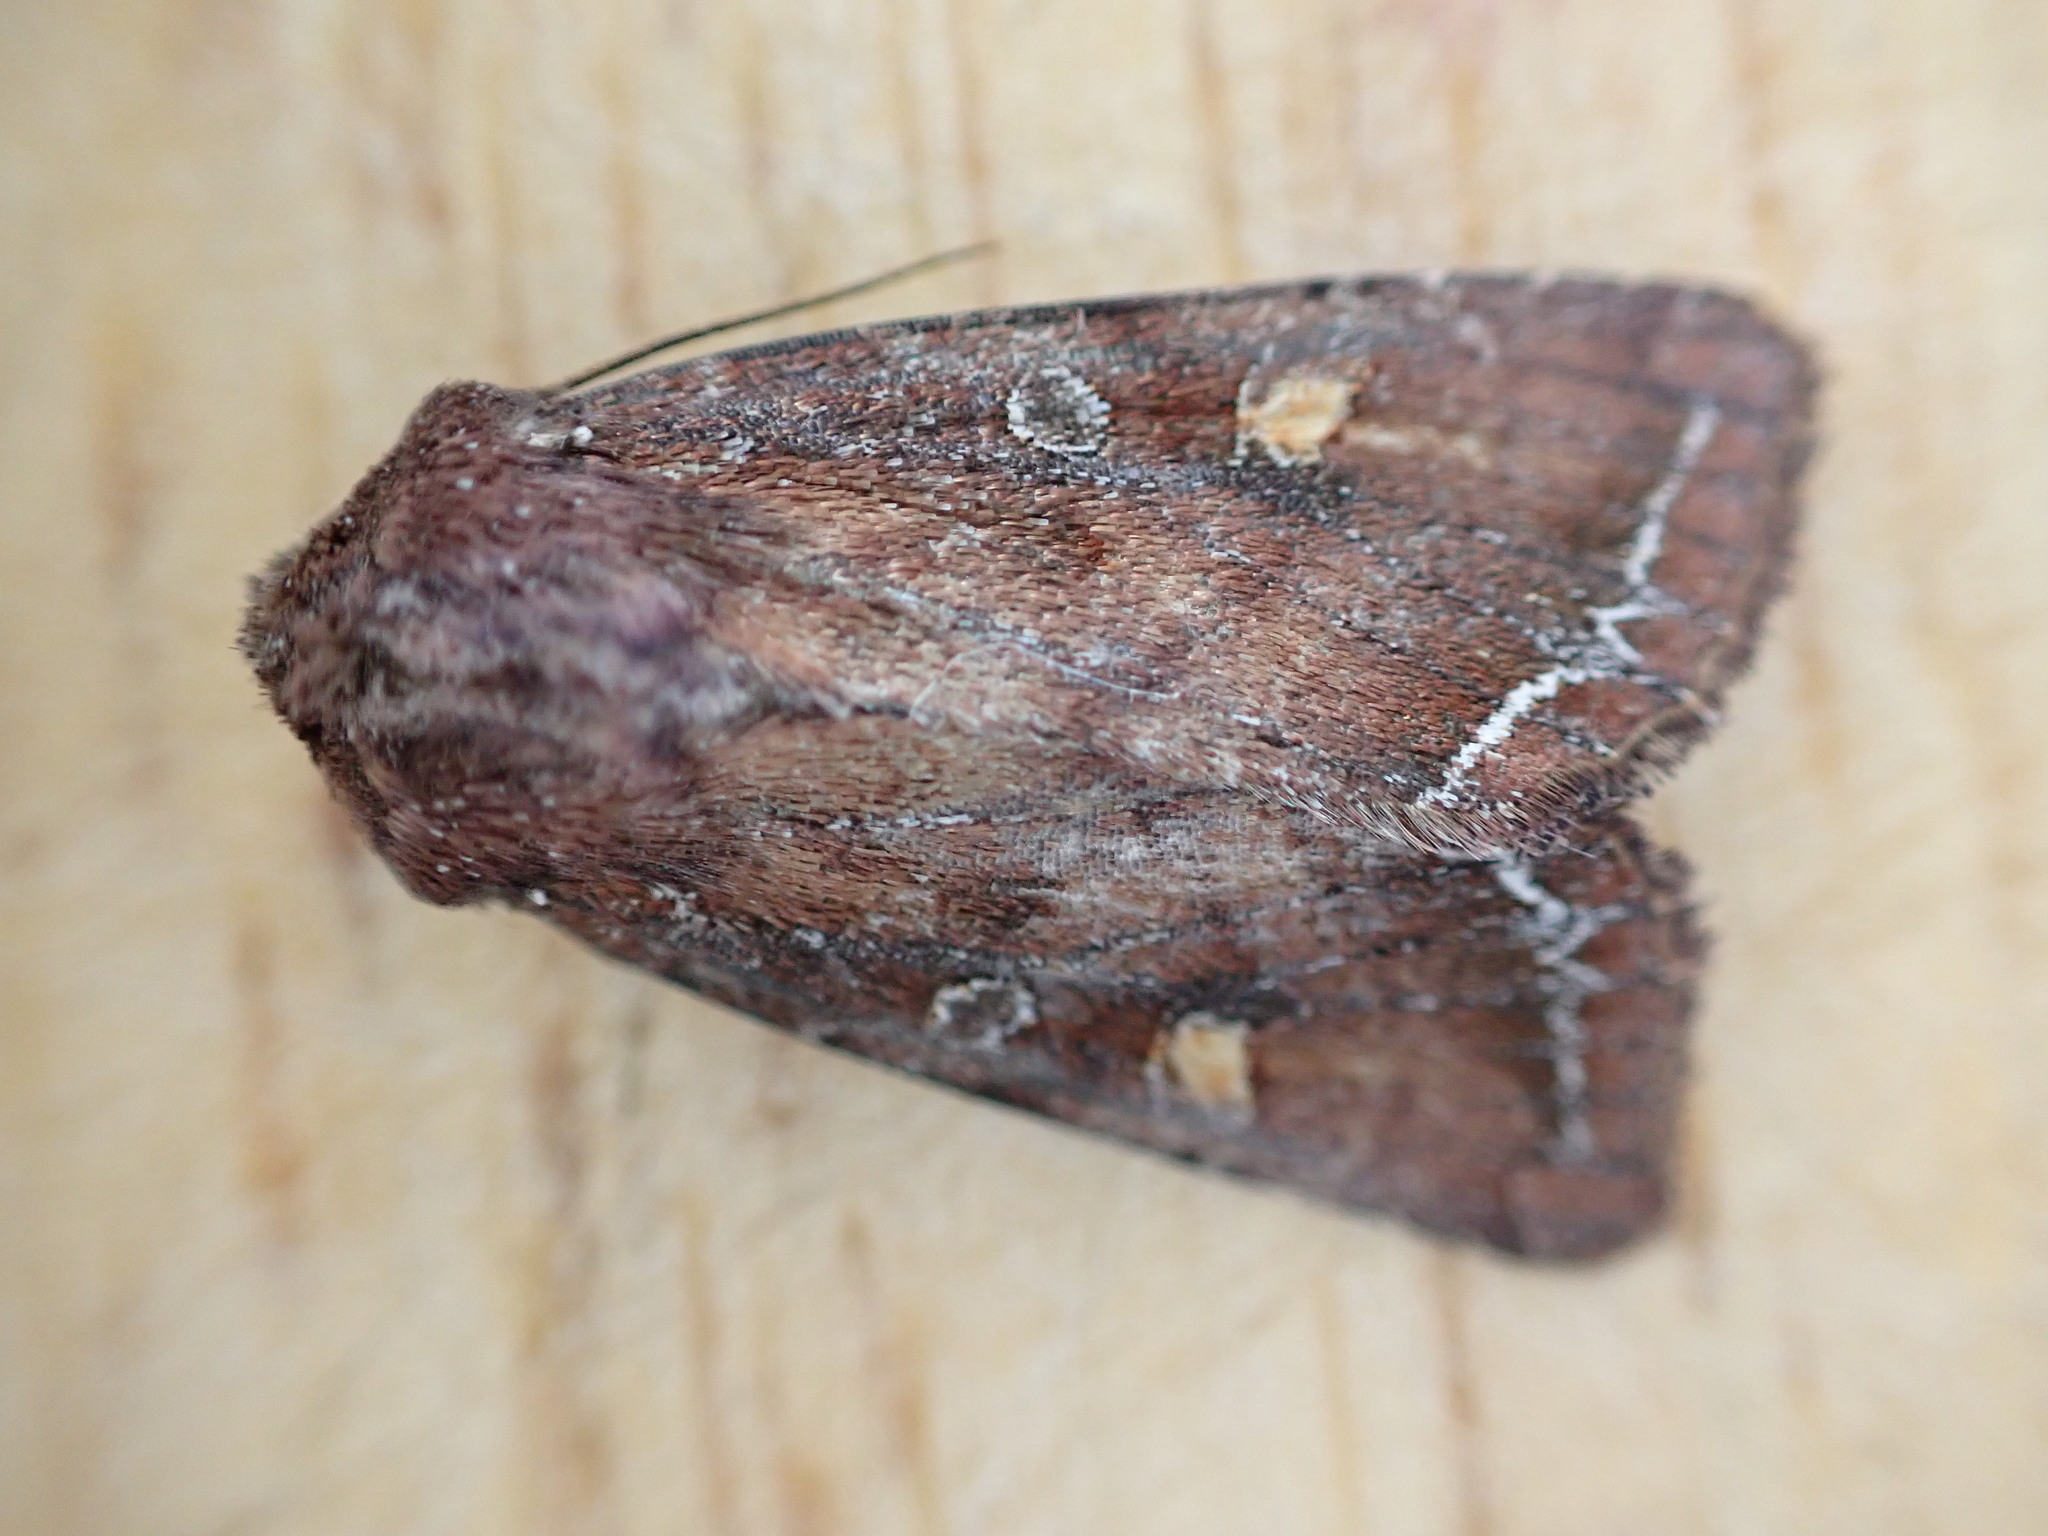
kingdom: Animalia
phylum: Arthropoda
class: Insecta
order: Lepidoptera
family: Noctuidae
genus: Lacanobia
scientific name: Lacanobia oleracea
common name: Bright-line brown-eye
